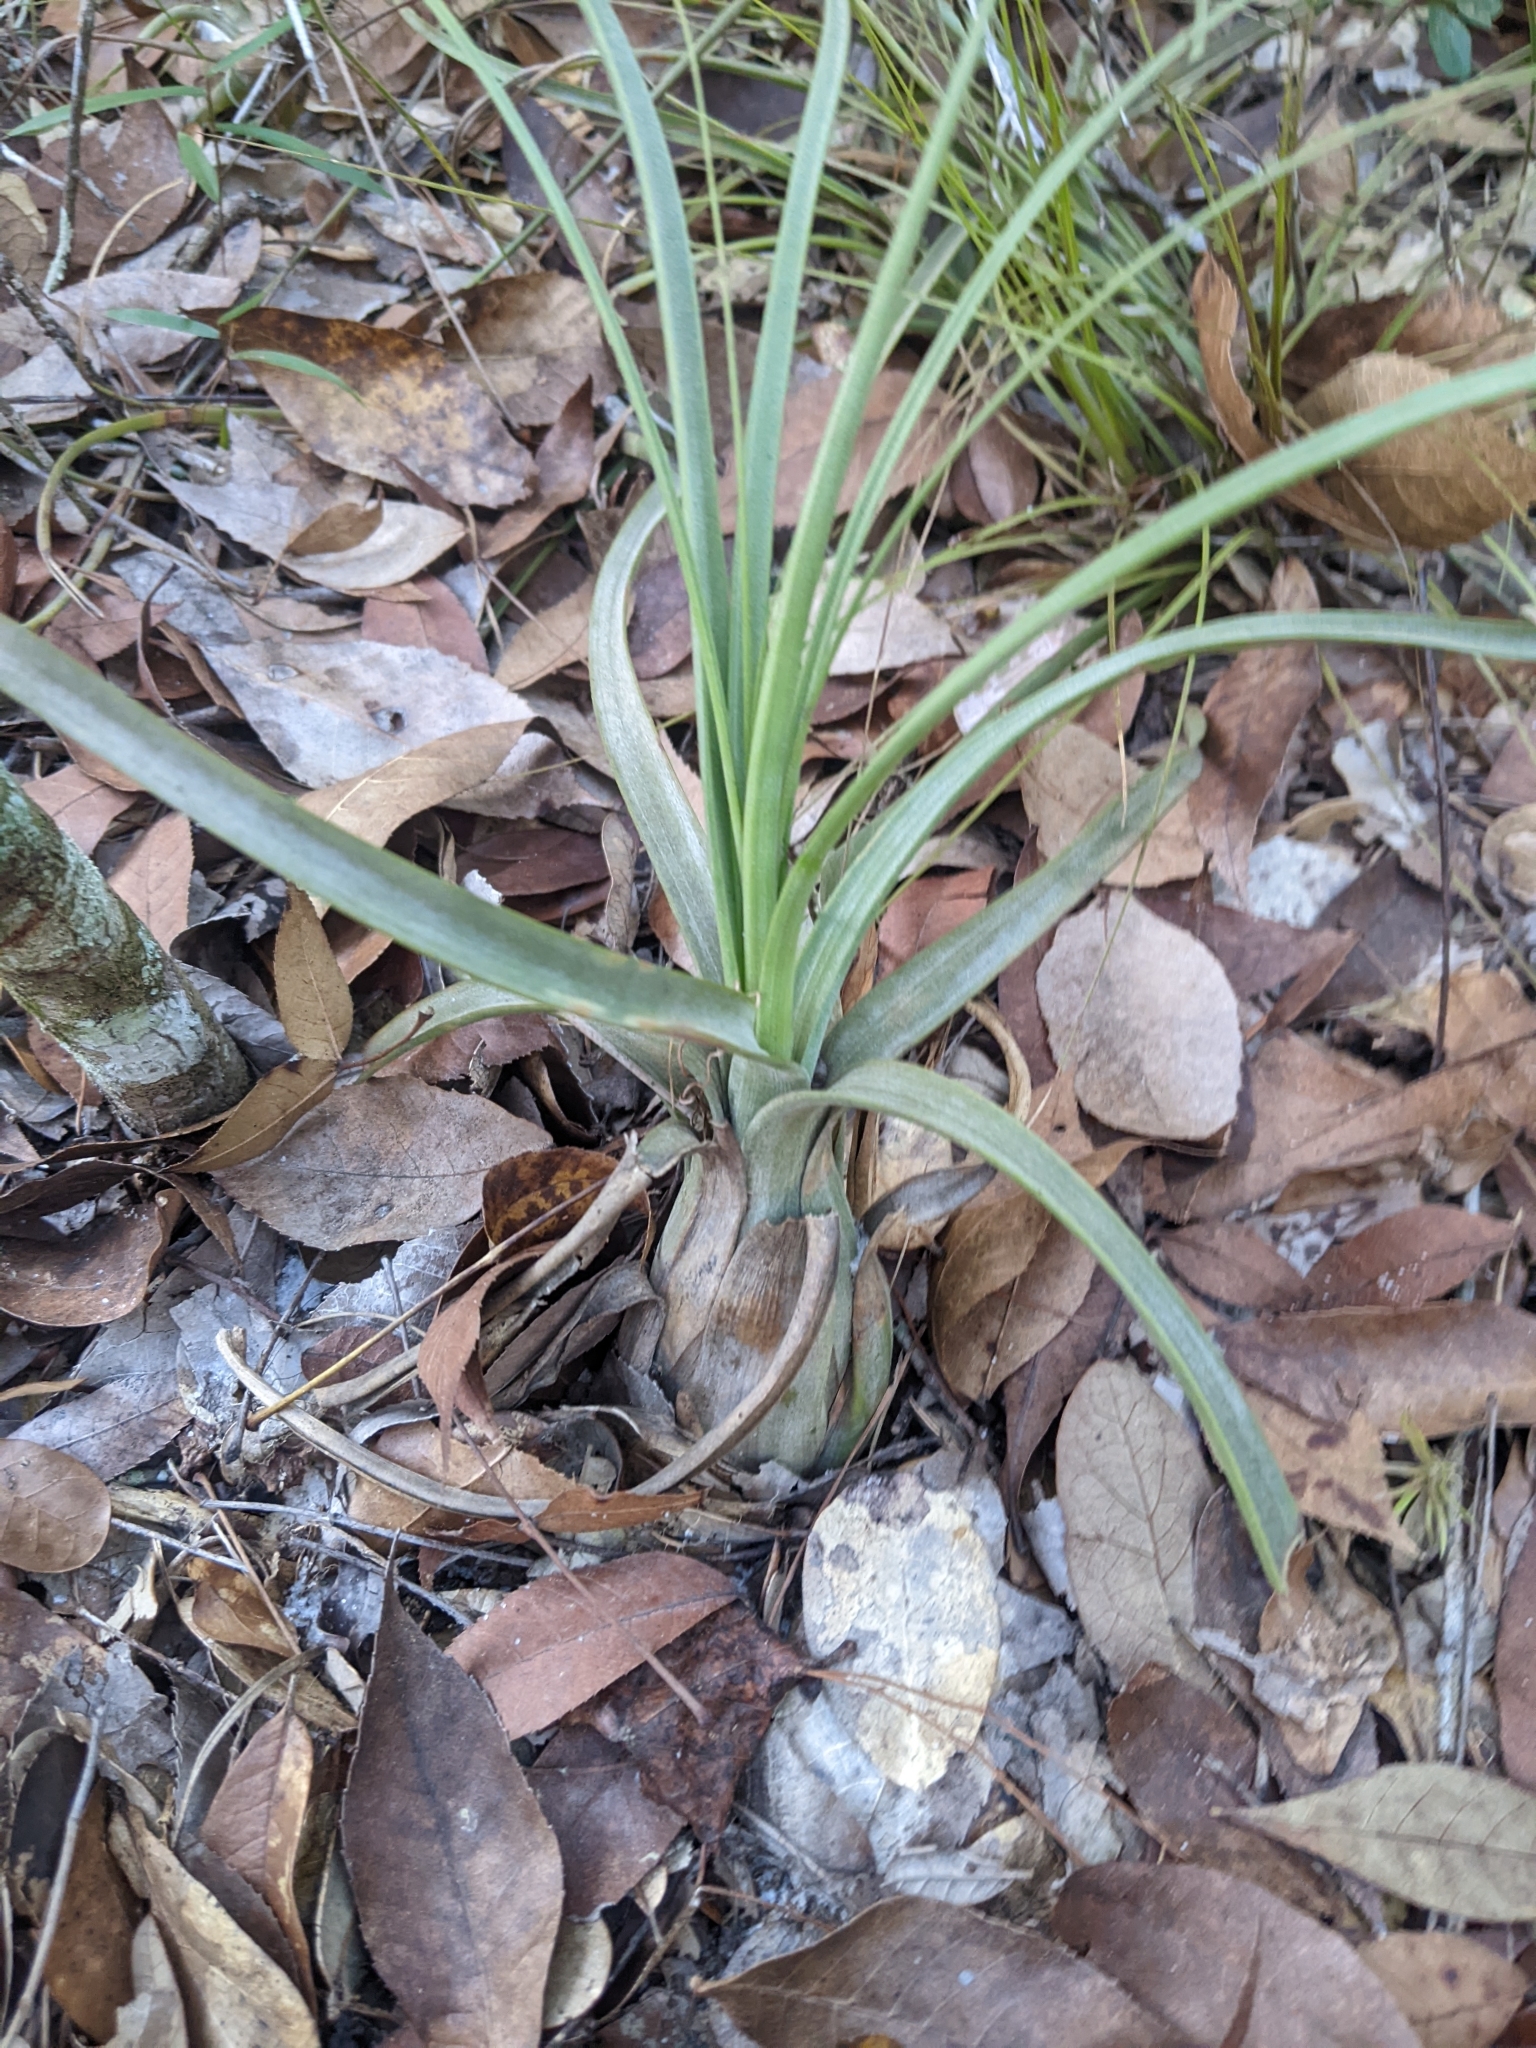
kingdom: Plantae
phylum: Tracheophyta
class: Liliopsida
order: Poales
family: Bromeliaceae
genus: Tillandsia
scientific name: Tillandsia balbisiana
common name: Northern needleleaf
